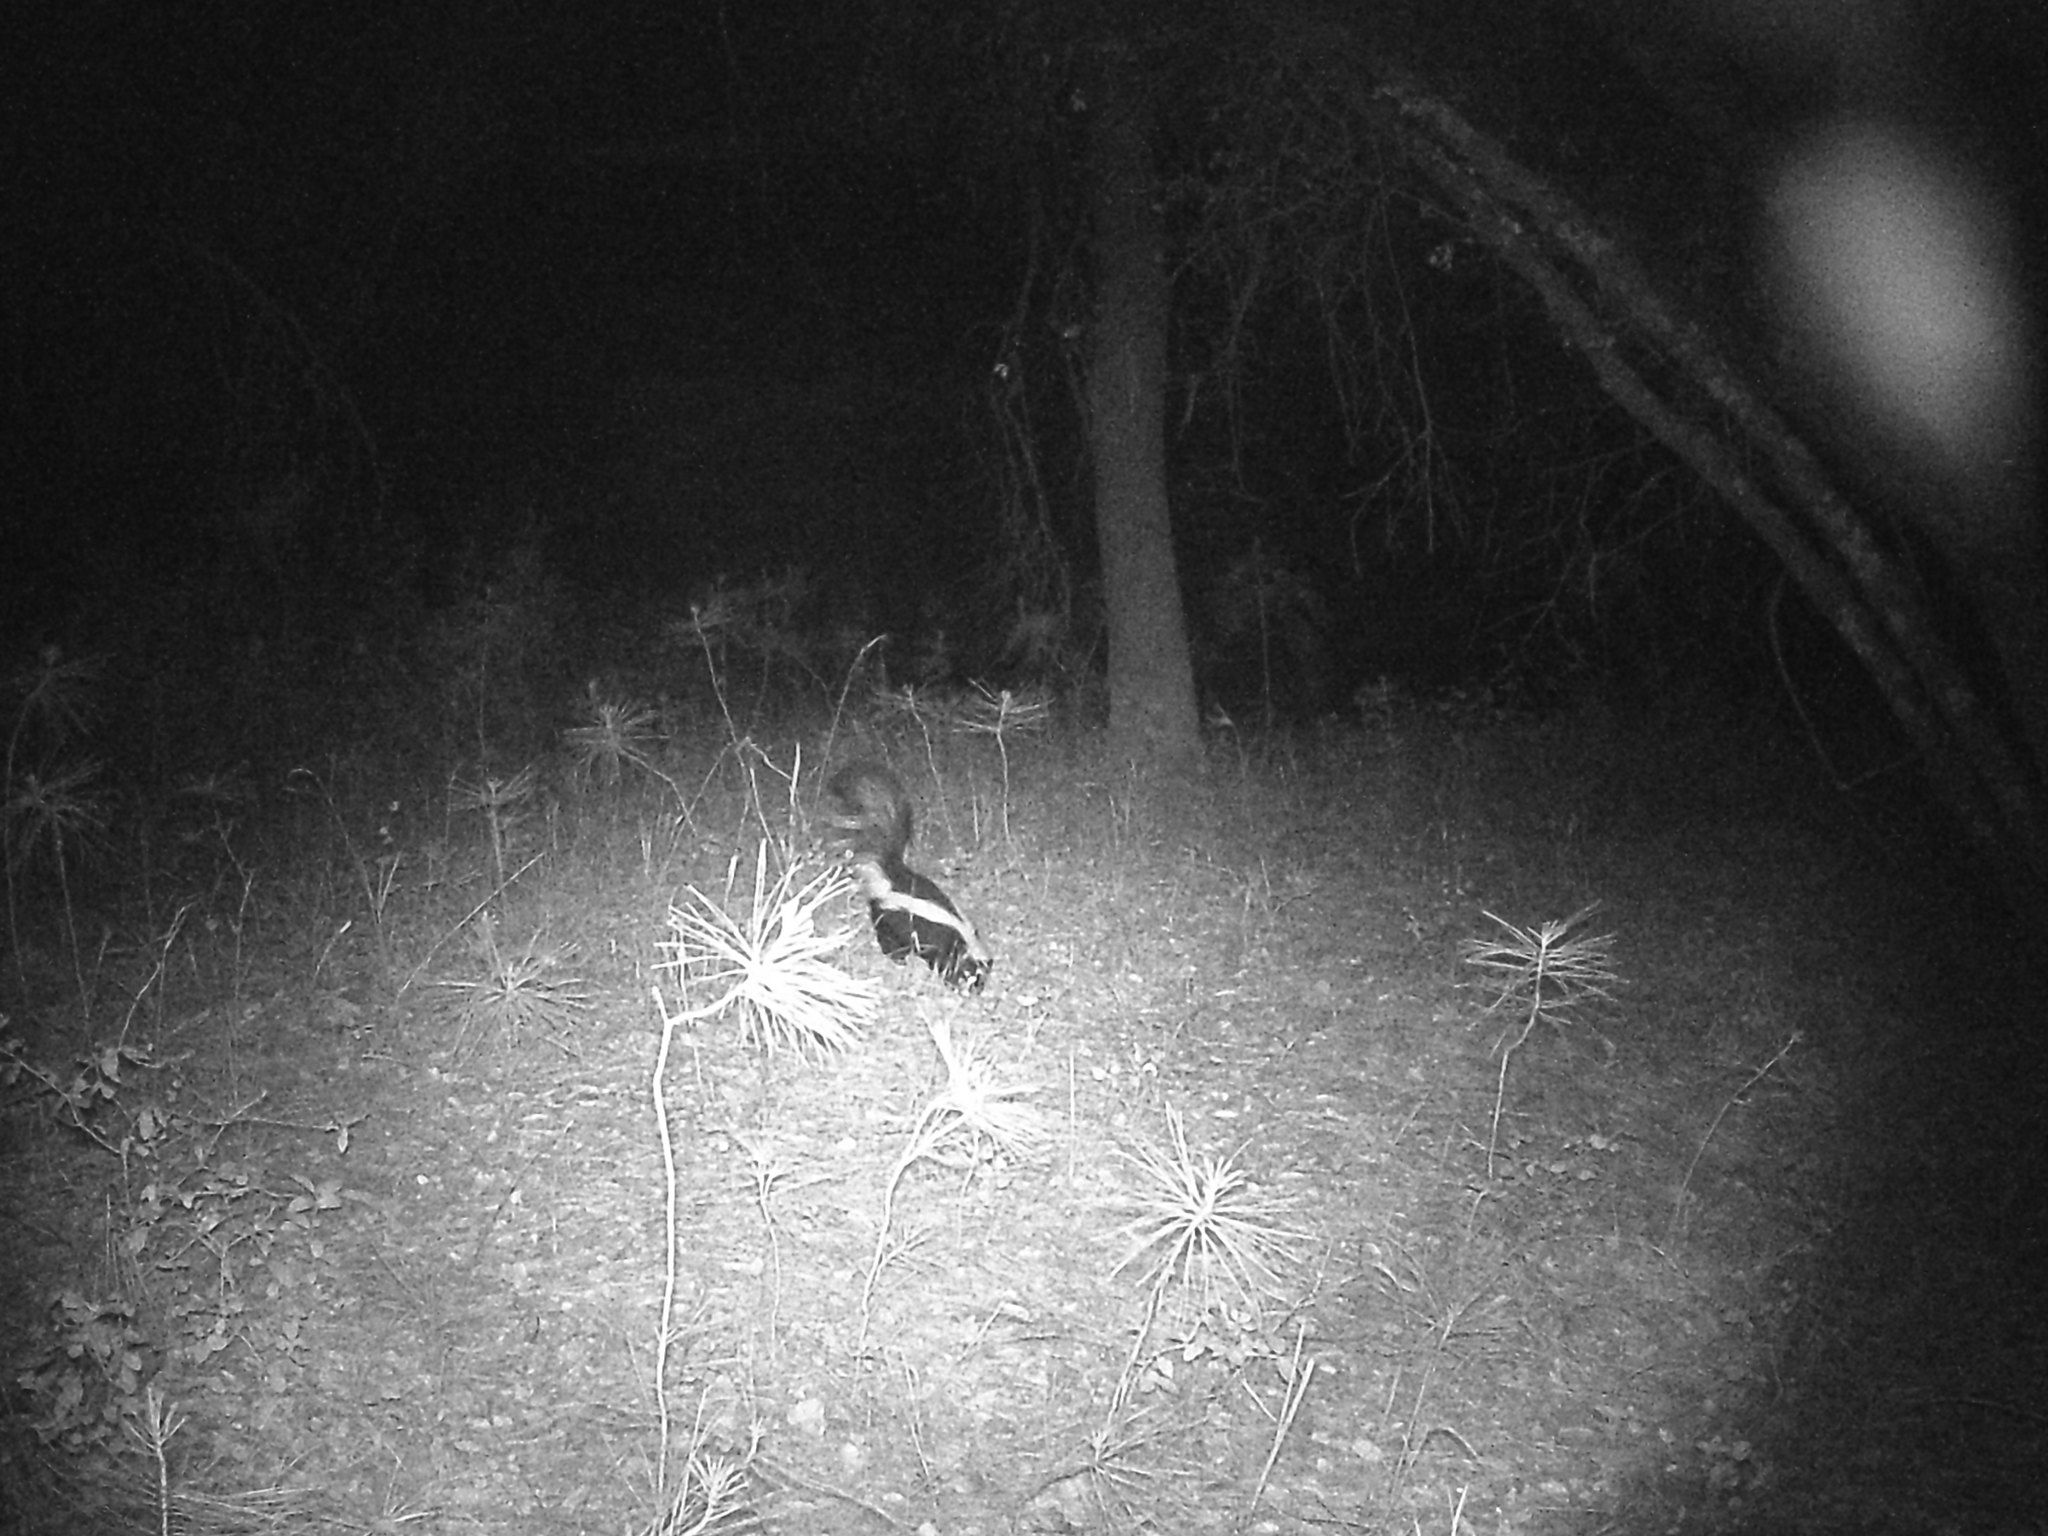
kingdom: Animalia
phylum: Chordata
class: Mammalia
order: Carnivora
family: Mephitidae
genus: Mephitis
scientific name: Mephitis mephitis
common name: Striped skunk
